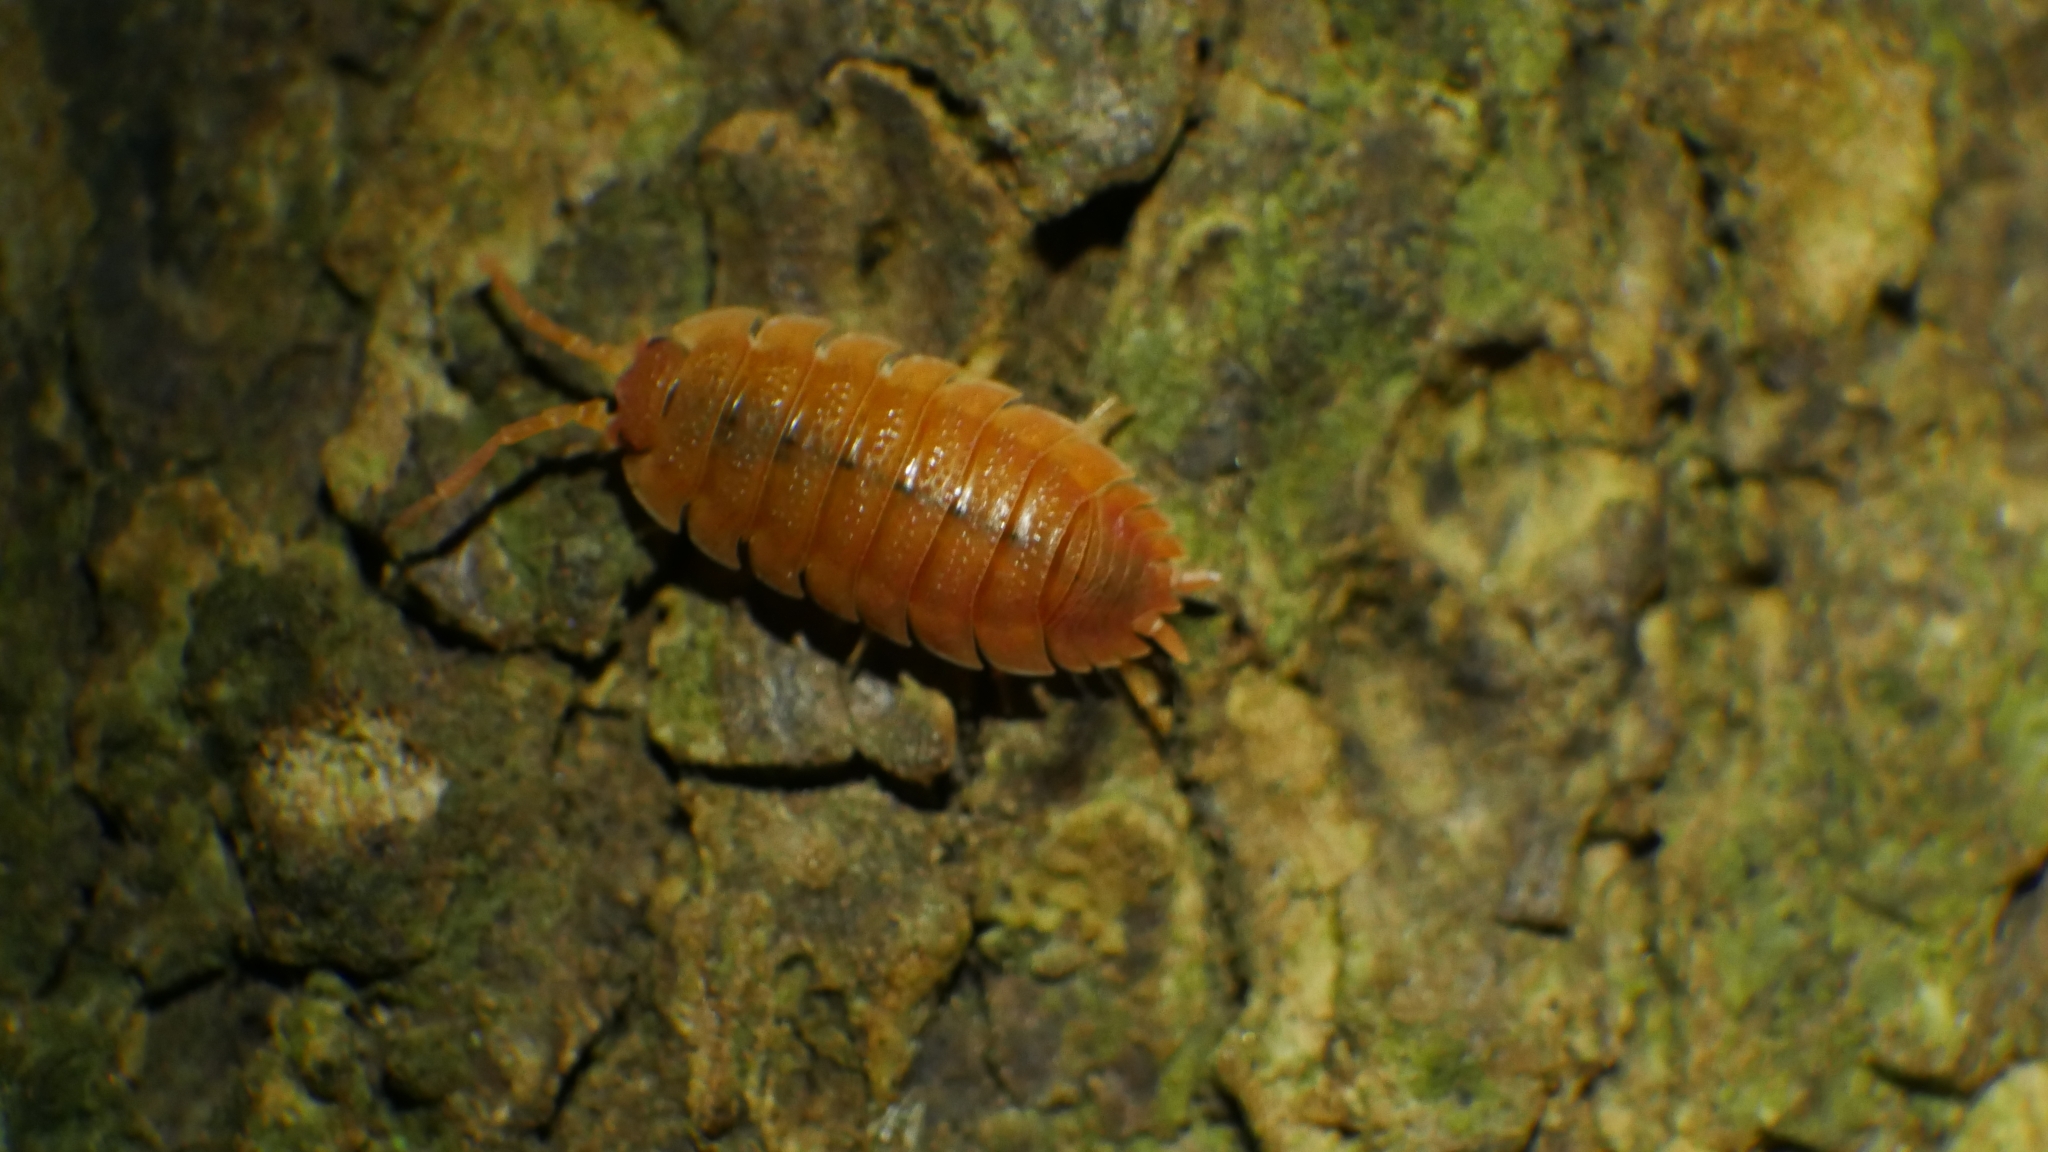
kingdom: Animalia
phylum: Arthropoda
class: Malacostraca
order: Isopoda
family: Porcellionidae
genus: Porcellio
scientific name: Porcellio scaber
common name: Common rough woodlouse
